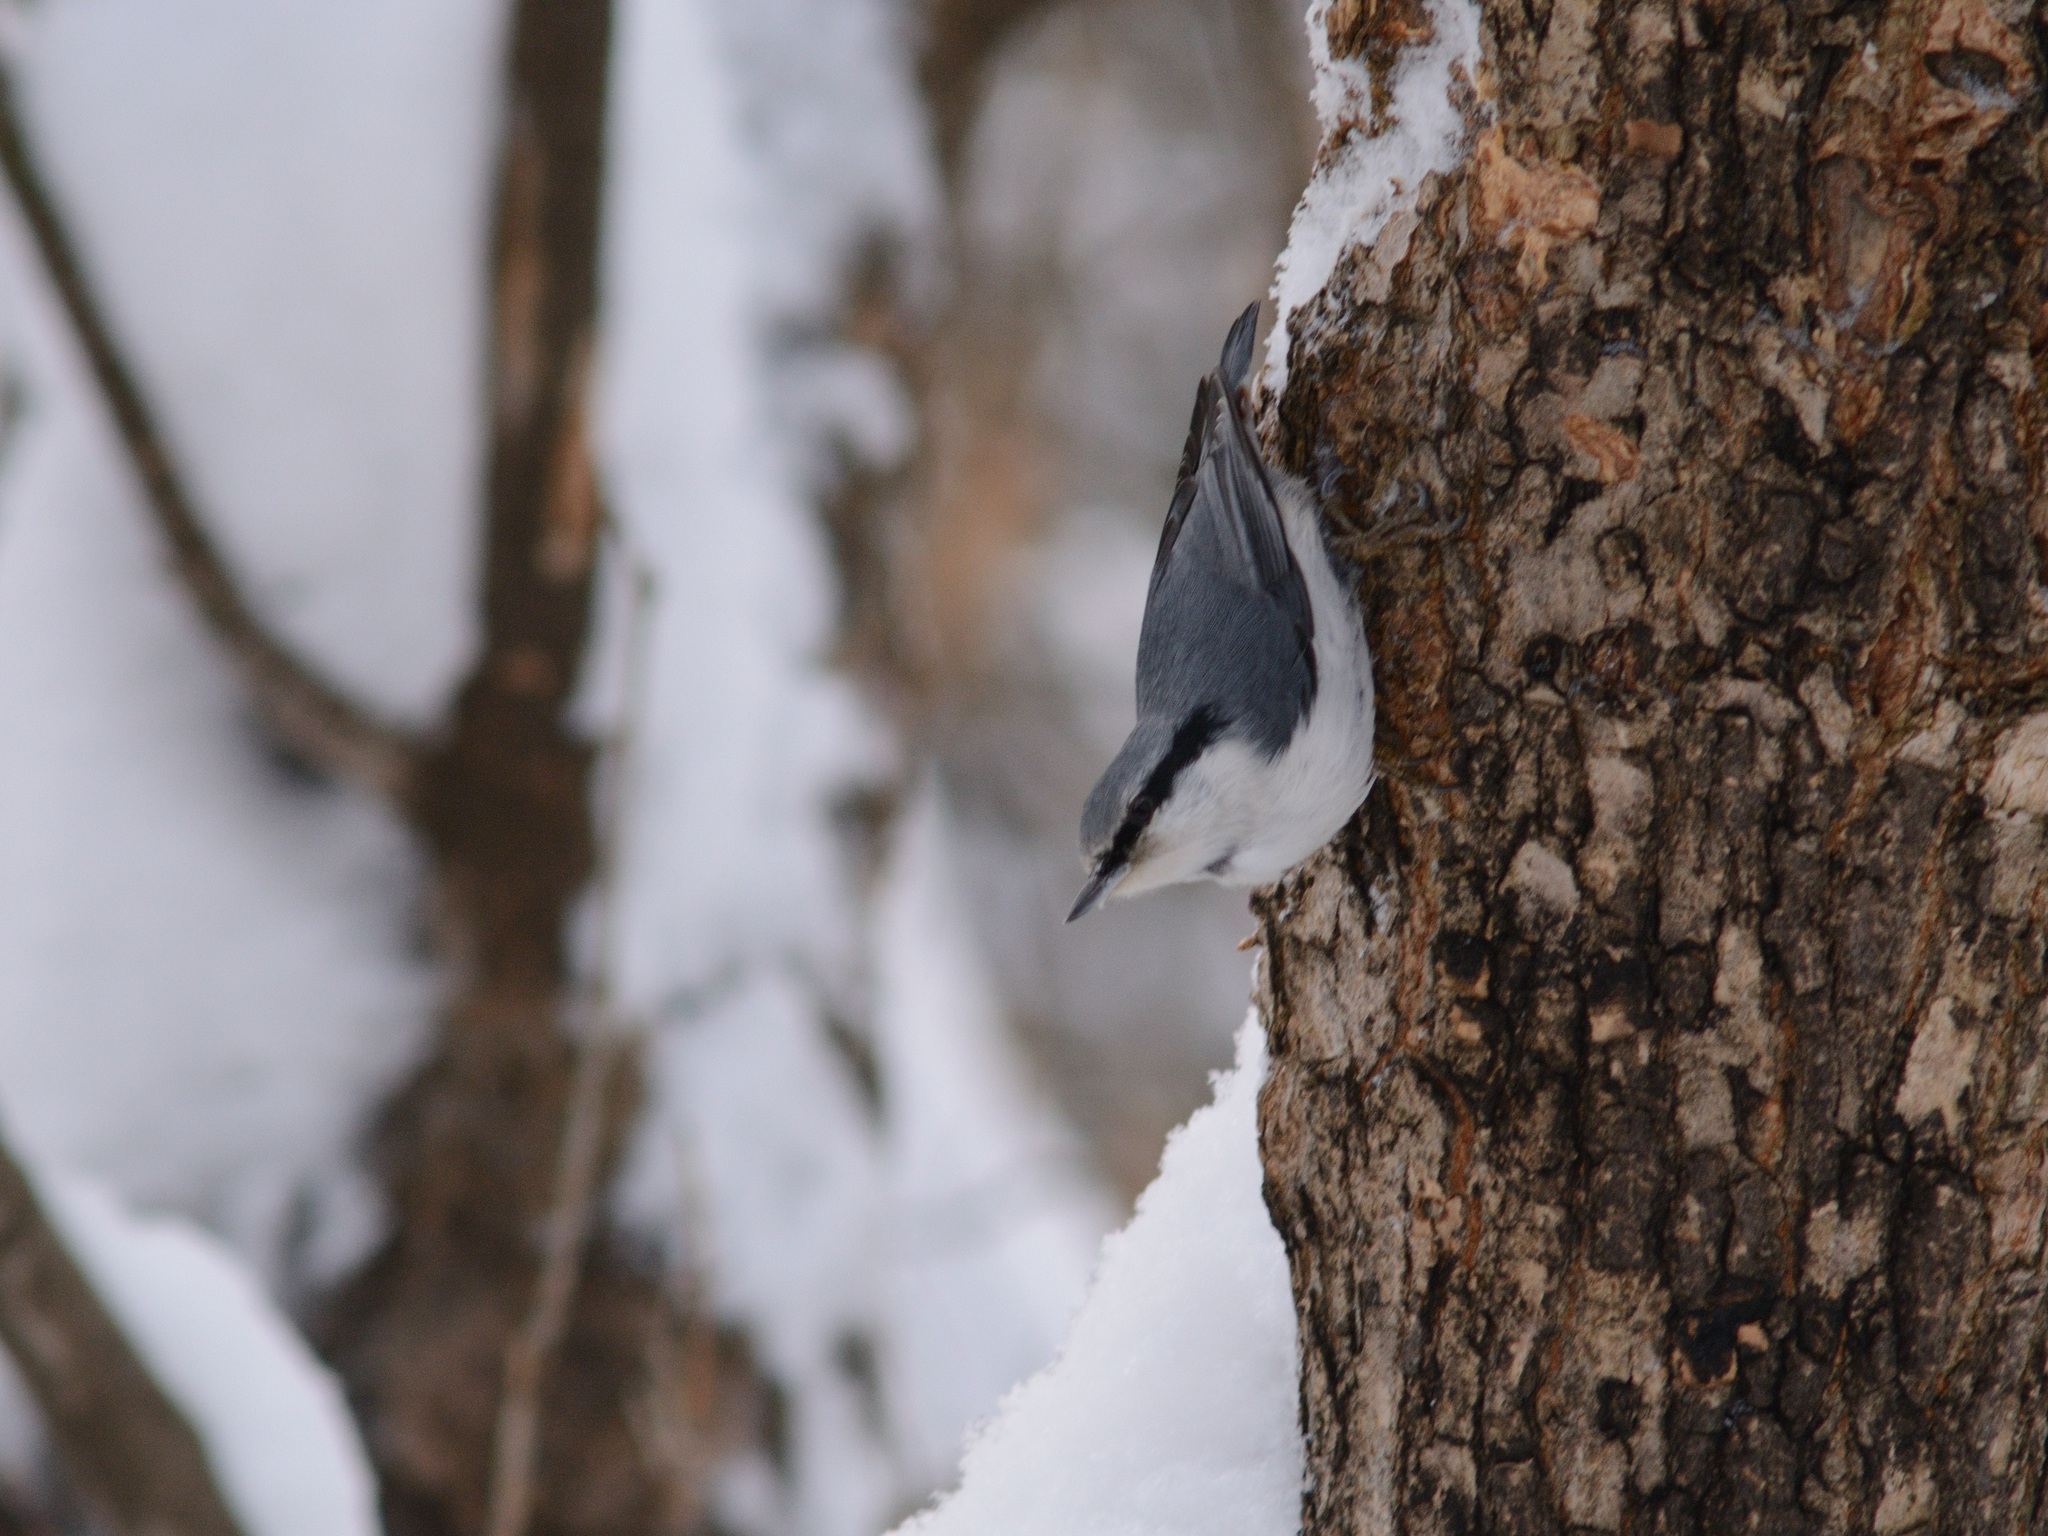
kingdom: Animalia
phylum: Chordata
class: Aves
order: Passeriformes
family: Sittidae
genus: Sitta
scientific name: Sitta europaea
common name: Eurasian nuthatch
